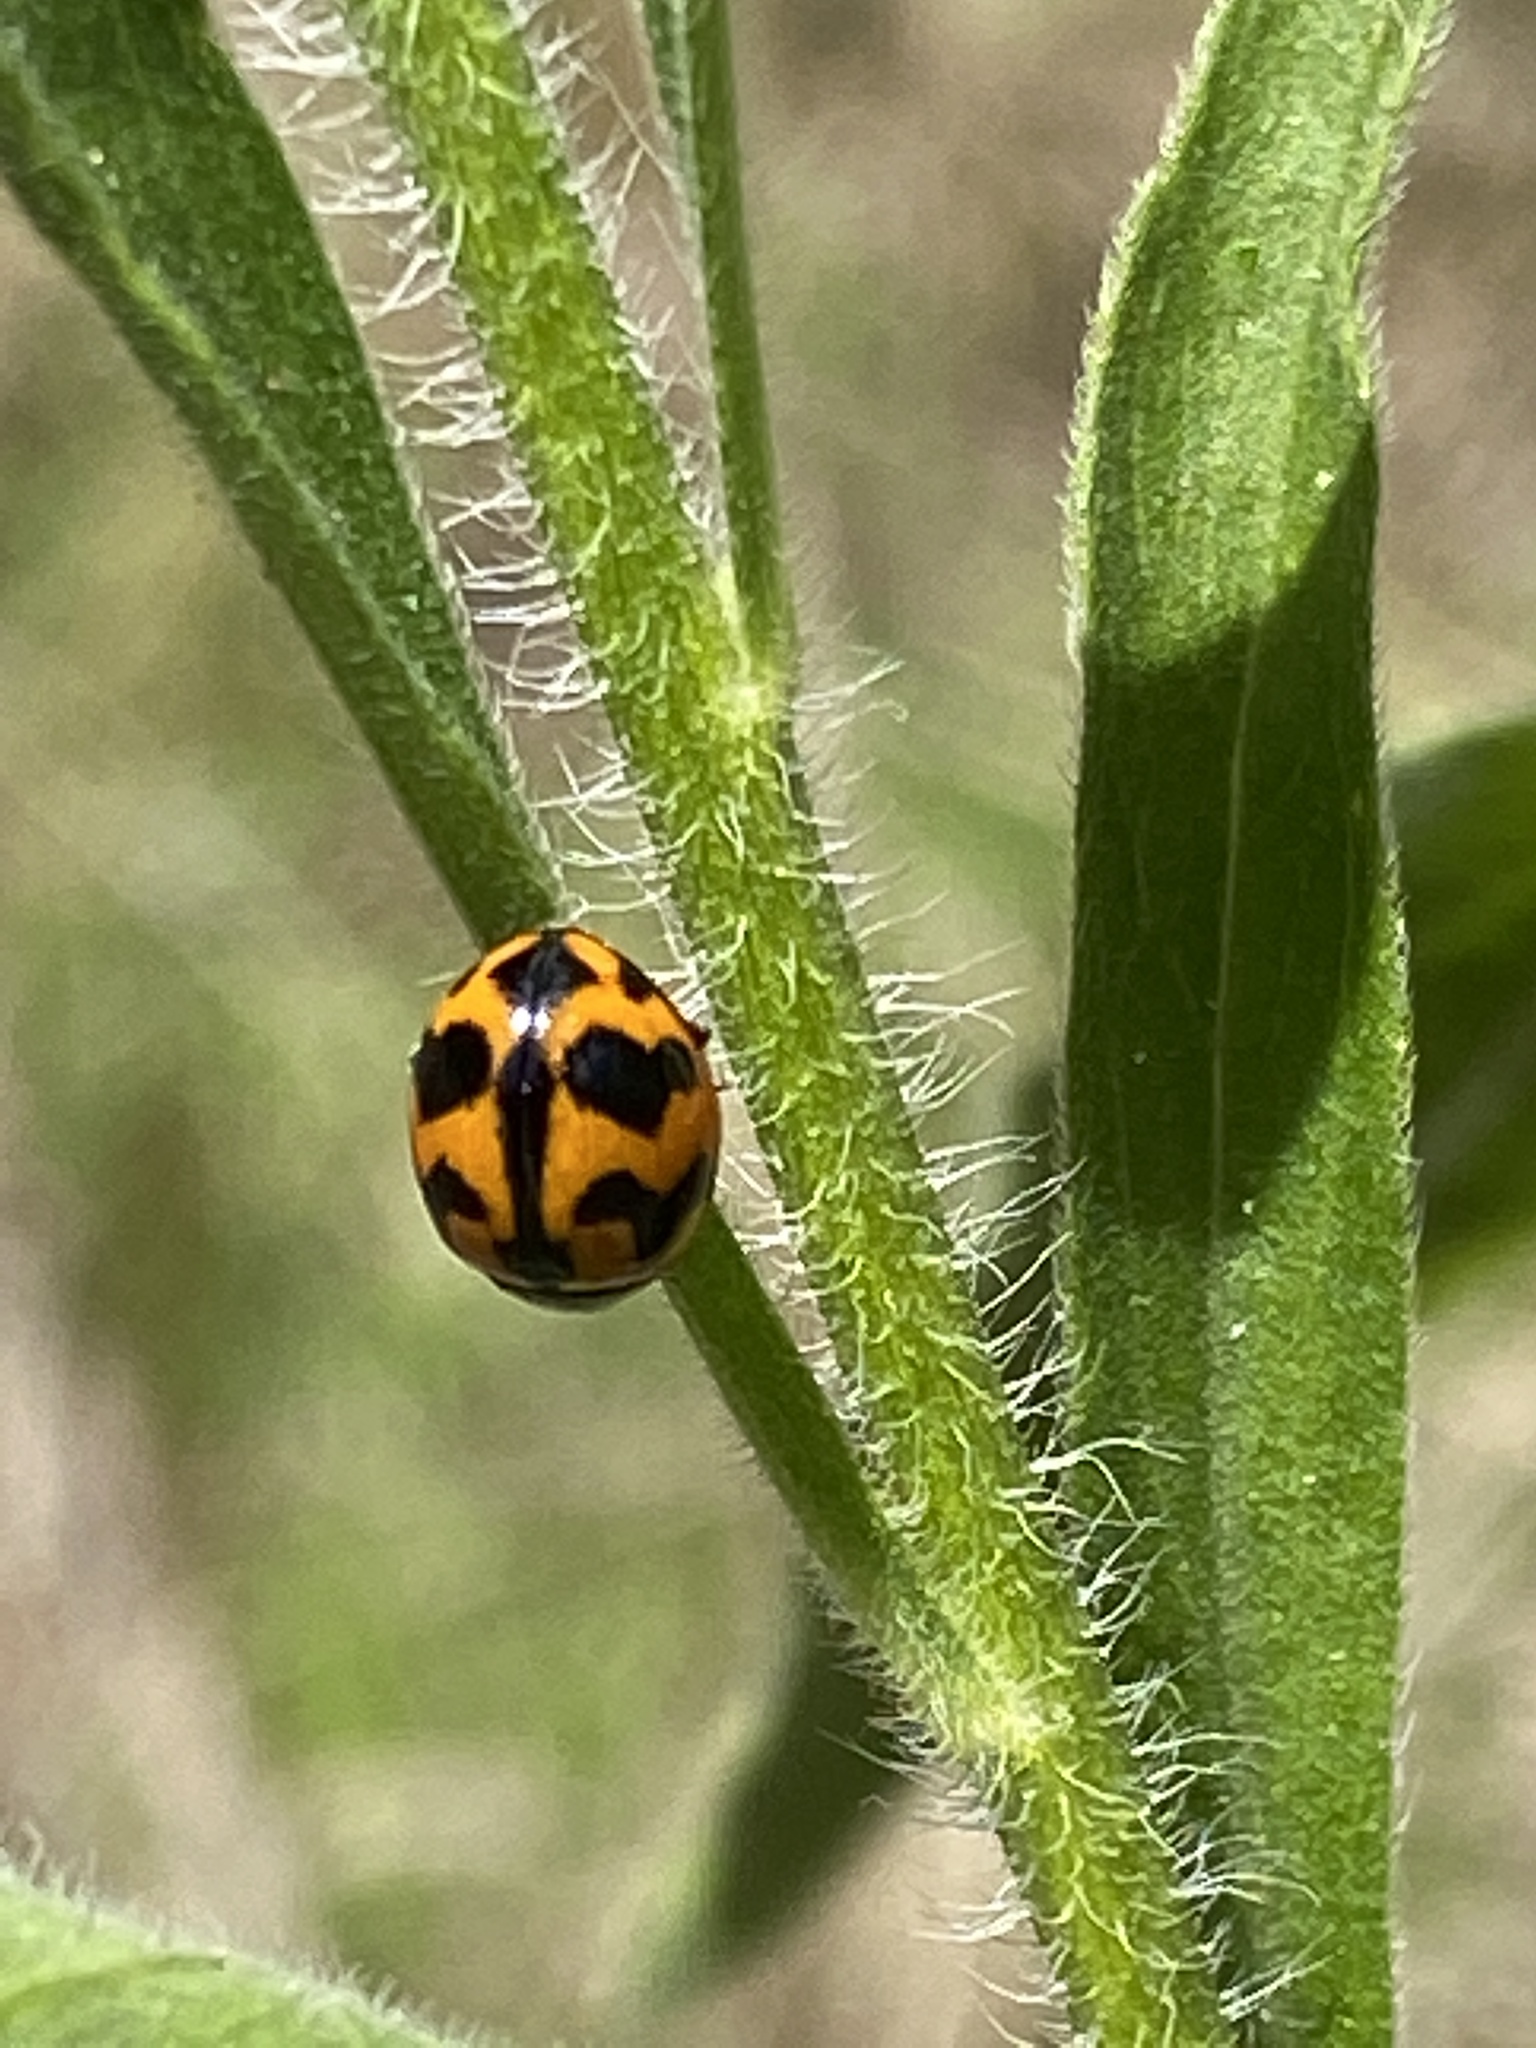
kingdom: Animalia
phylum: Arthropoda
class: Insecta
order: Coleoptera
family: Coccinellidae
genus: Coccinella
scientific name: Coccinella transversalis
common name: Transverse lady beetle
